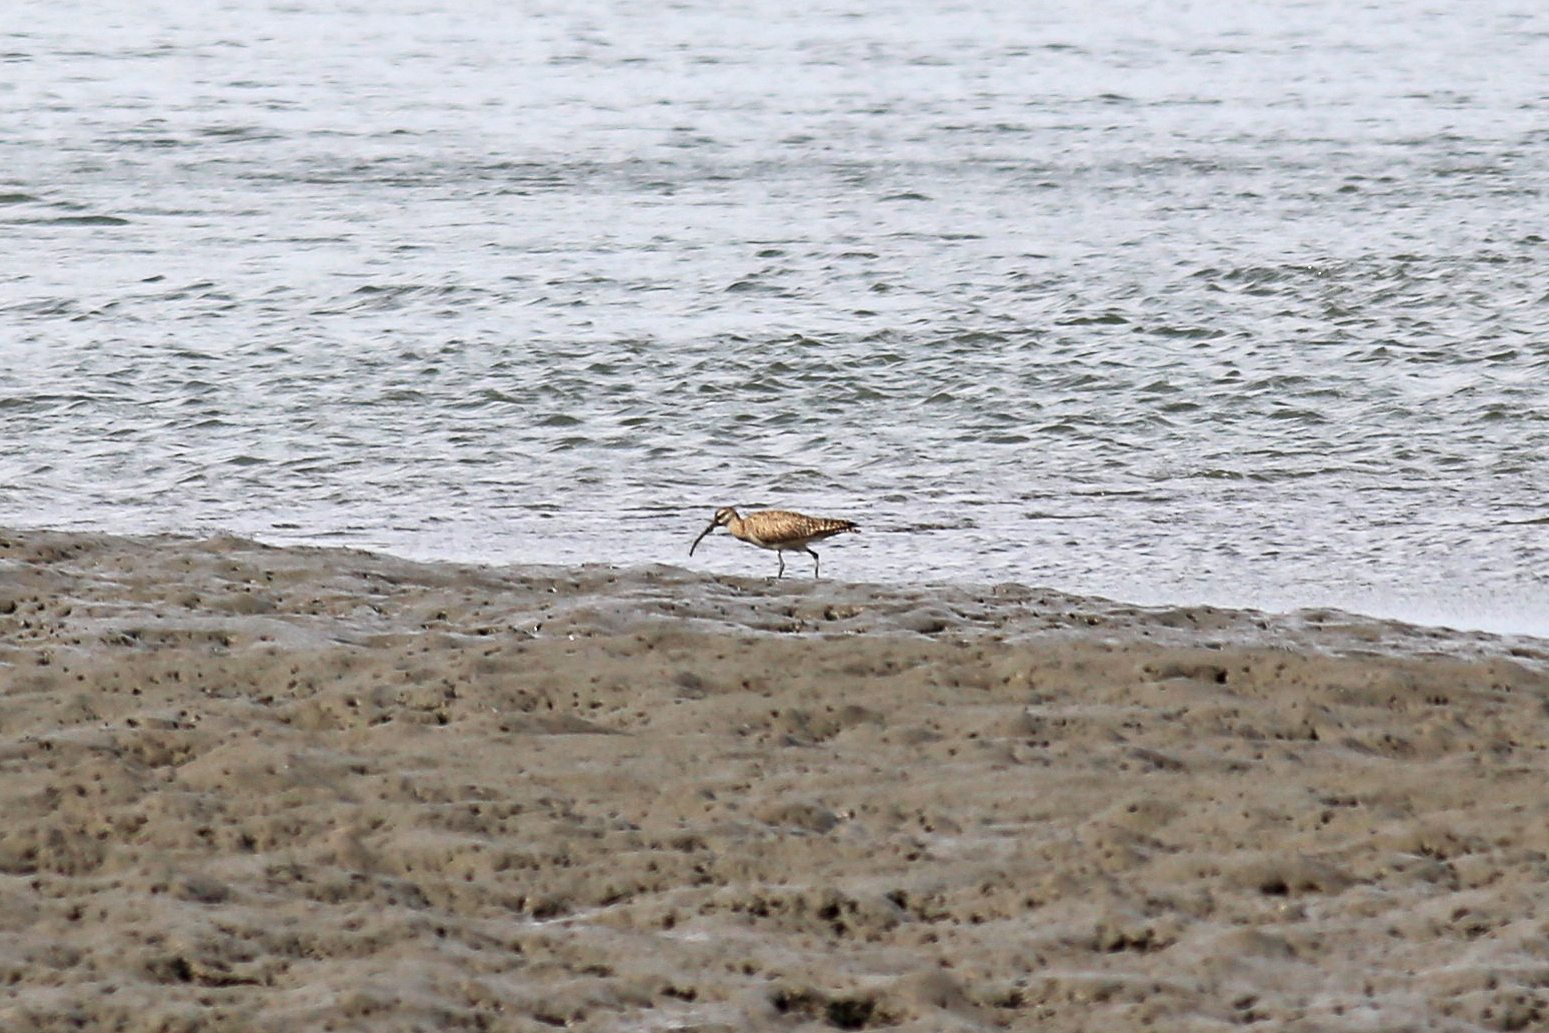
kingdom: Animalia
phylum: Chordata
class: Aves
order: Charadriiformes
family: Scolopacidae
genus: Numenius
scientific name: Numenius phaeopus
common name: Whimbrel
